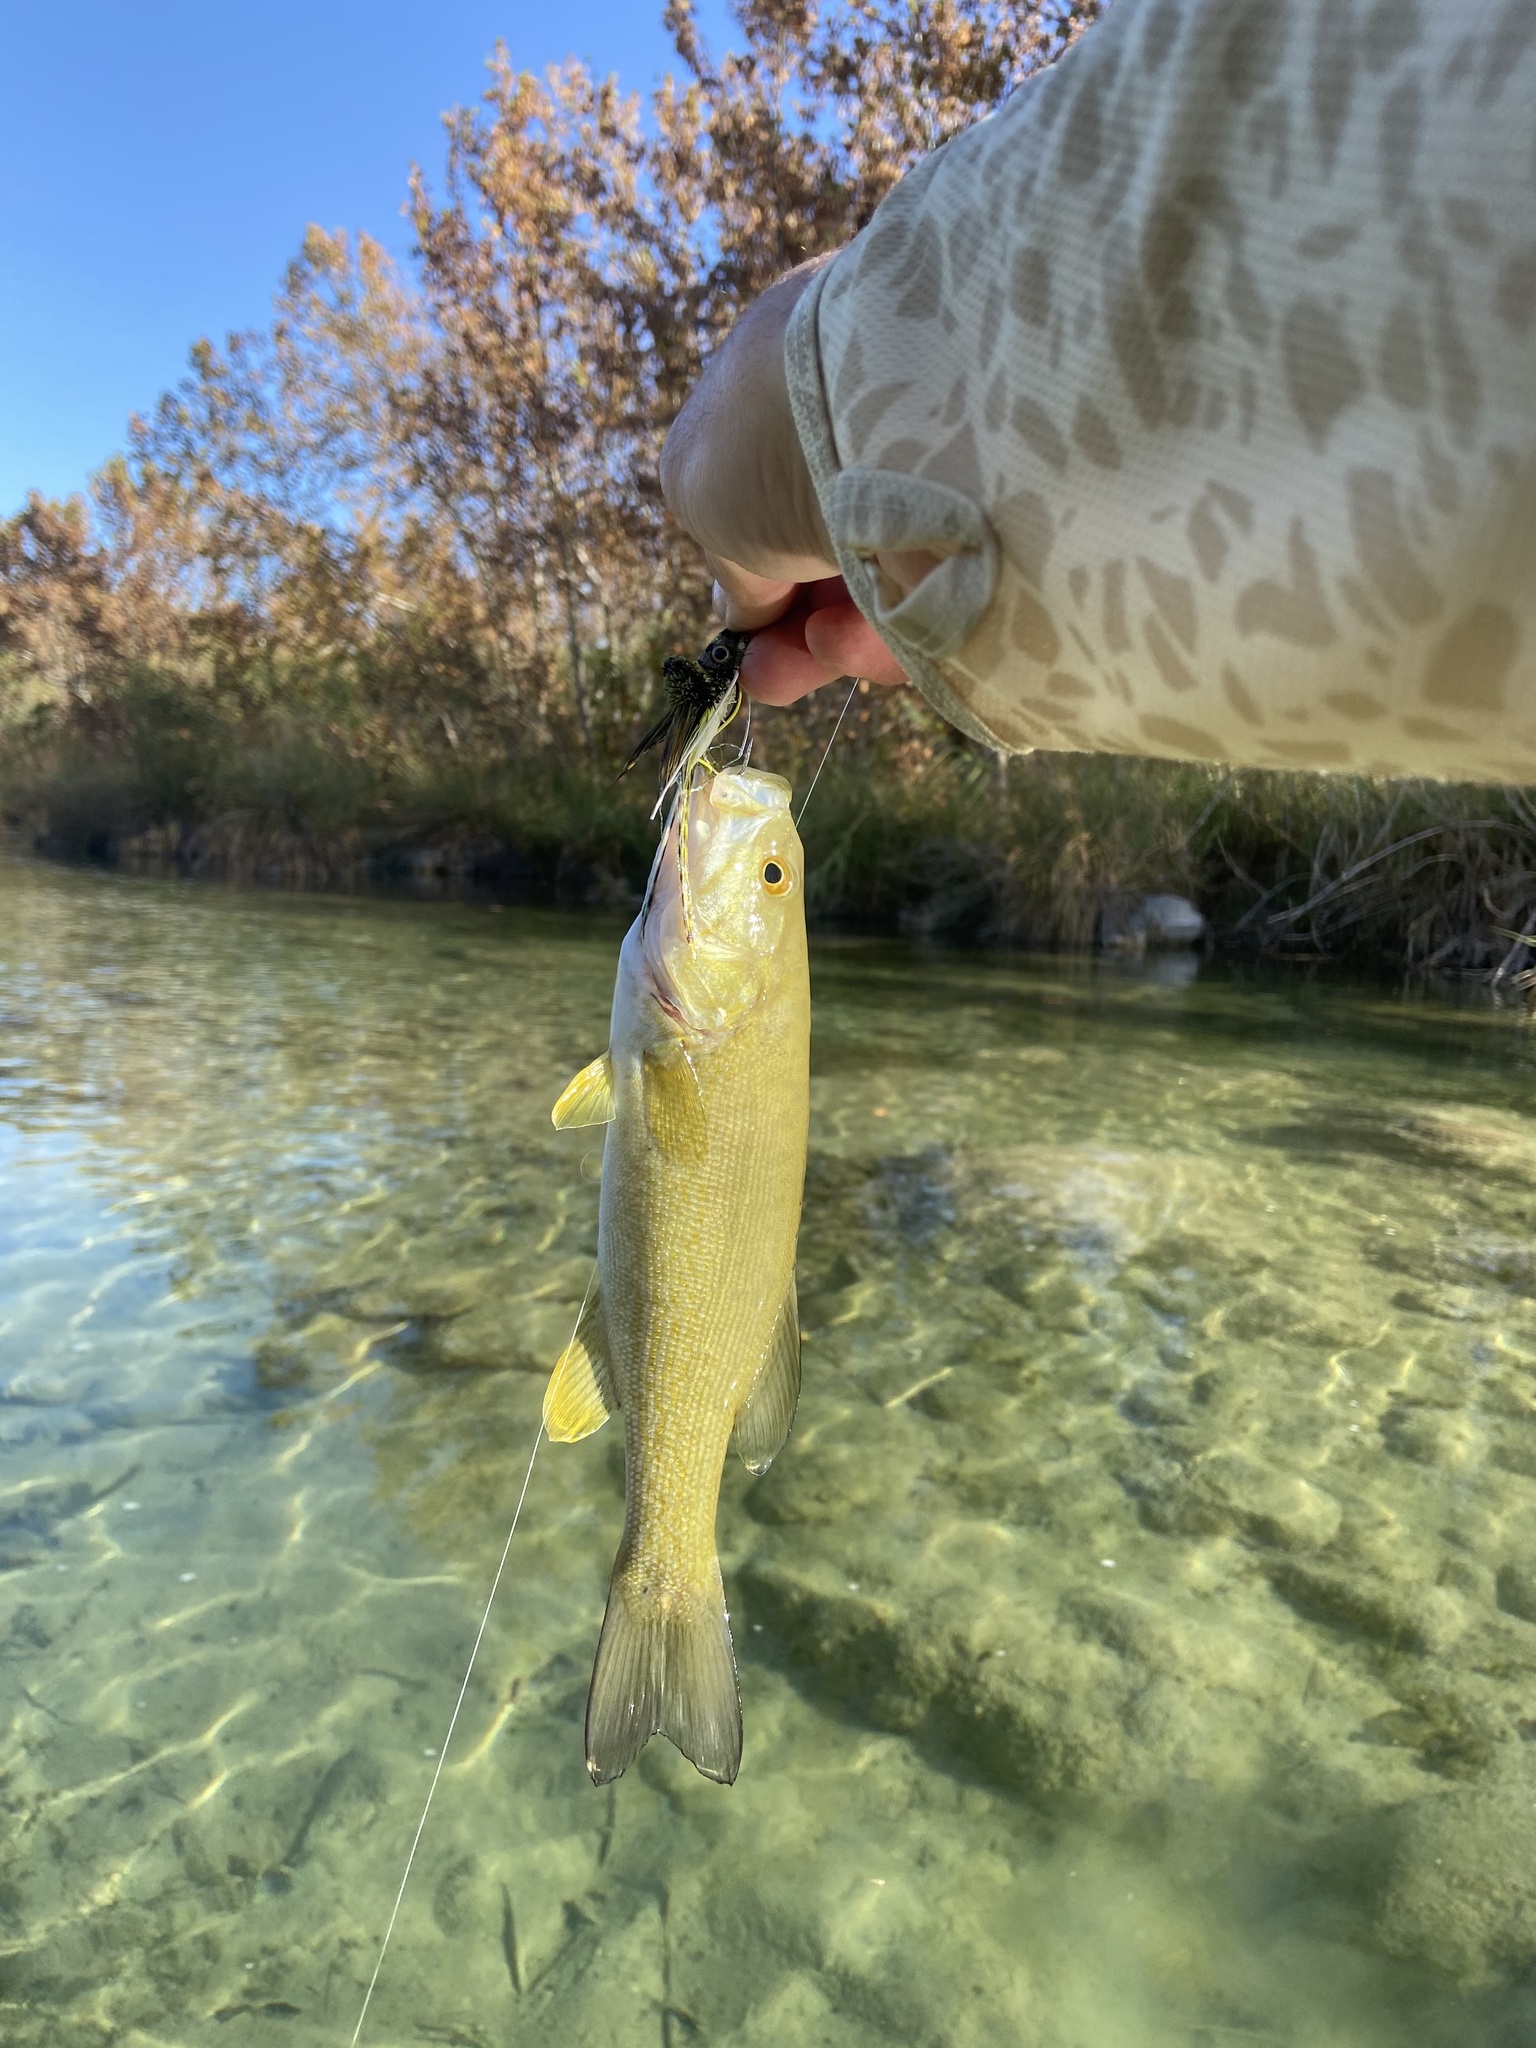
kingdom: Animalia
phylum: Chordata
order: Perciformes
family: Centrarchidae
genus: Micropterus
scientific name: Micropterus dolomieu
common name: Smallmouth bass
